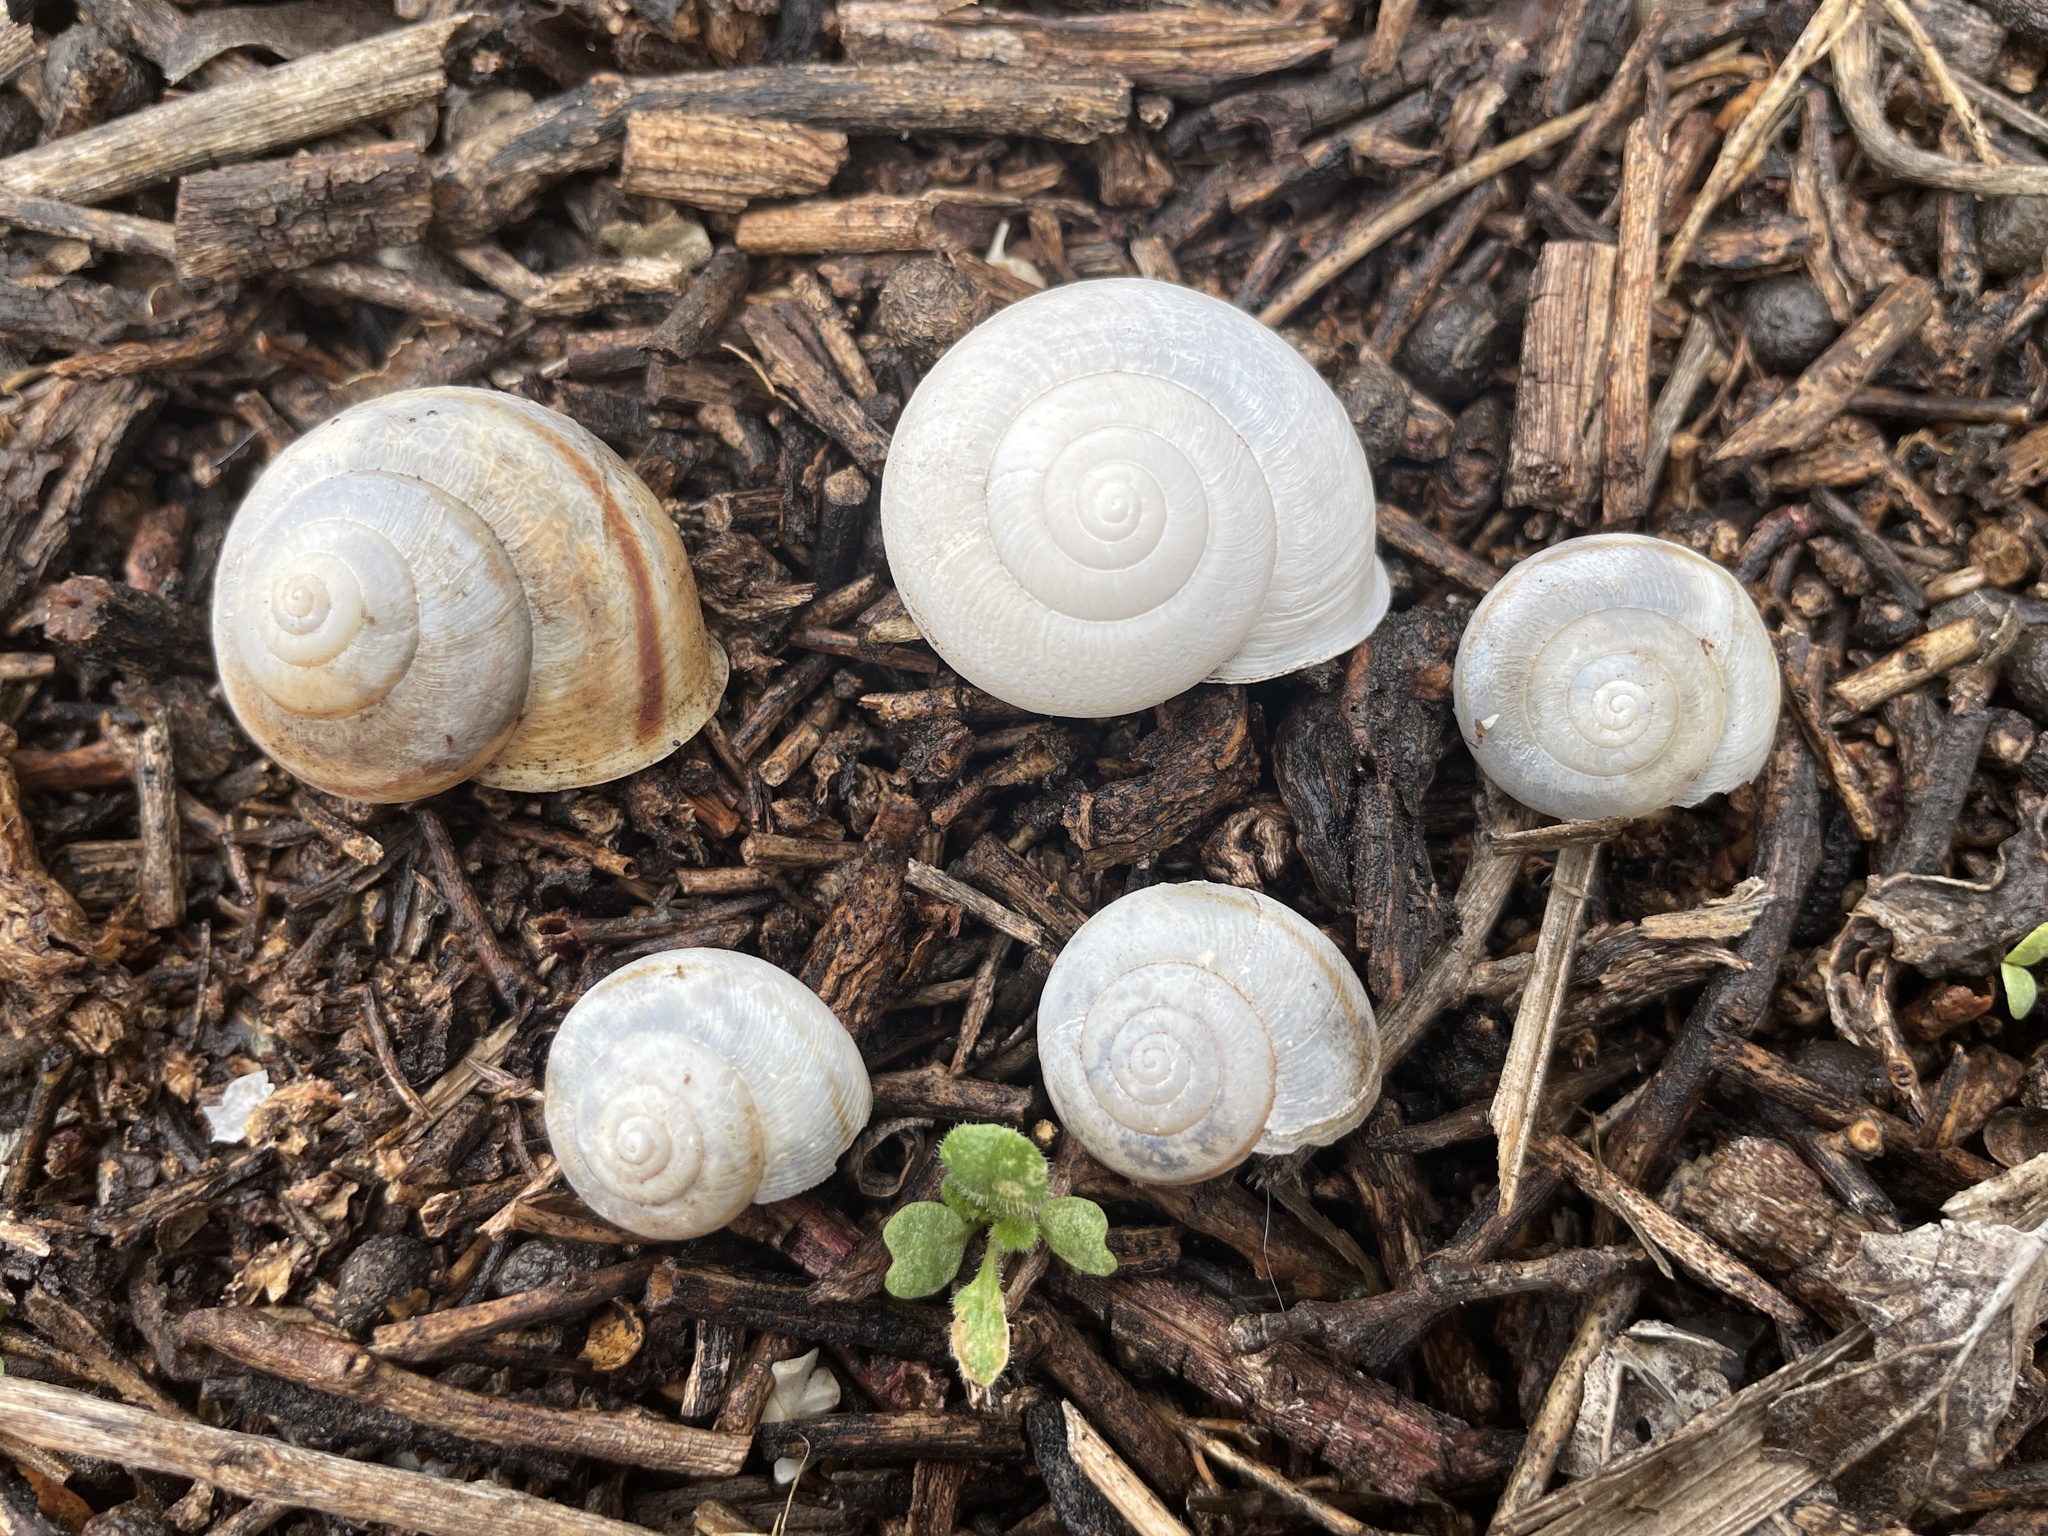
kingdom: Animalia
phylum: Mollusca
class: Gastropoda
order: Stylommatophora
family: Xanthonychidae
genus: Helminthoglypta
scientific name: Helminthoglypta tudiculata
